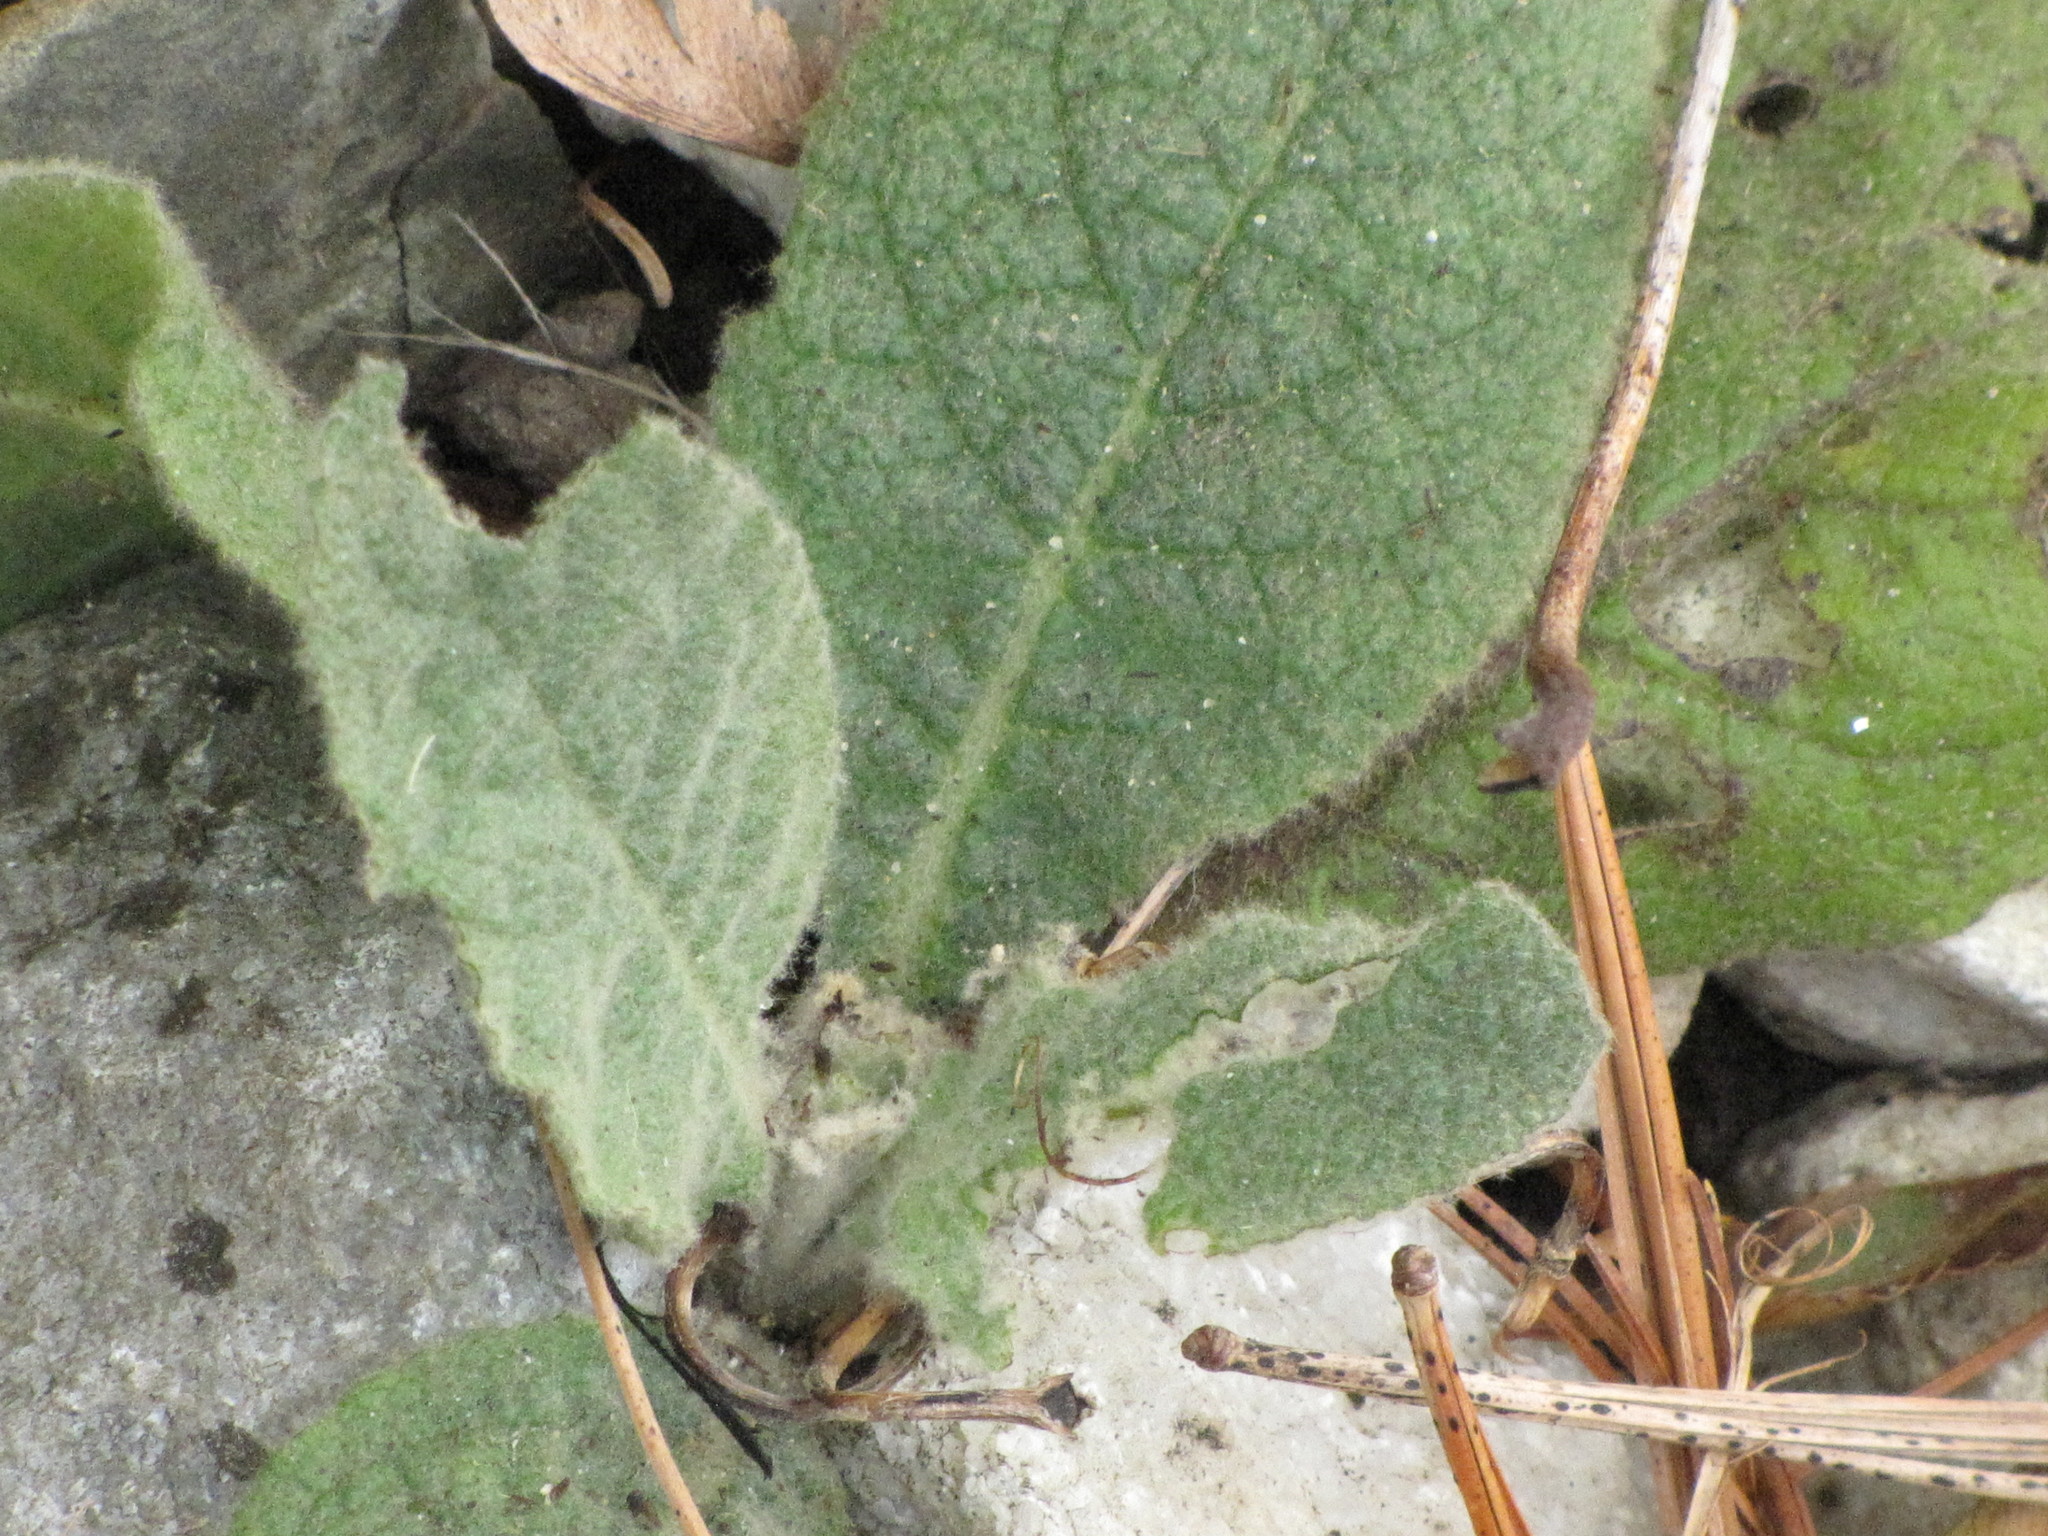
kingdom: Plantae
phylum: Tracheophyta
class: Magnoliopsida
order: Lamiales
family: Scrophulariaceae
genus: Verbascum
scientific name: Verbascum thapsus
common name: Common mullein
